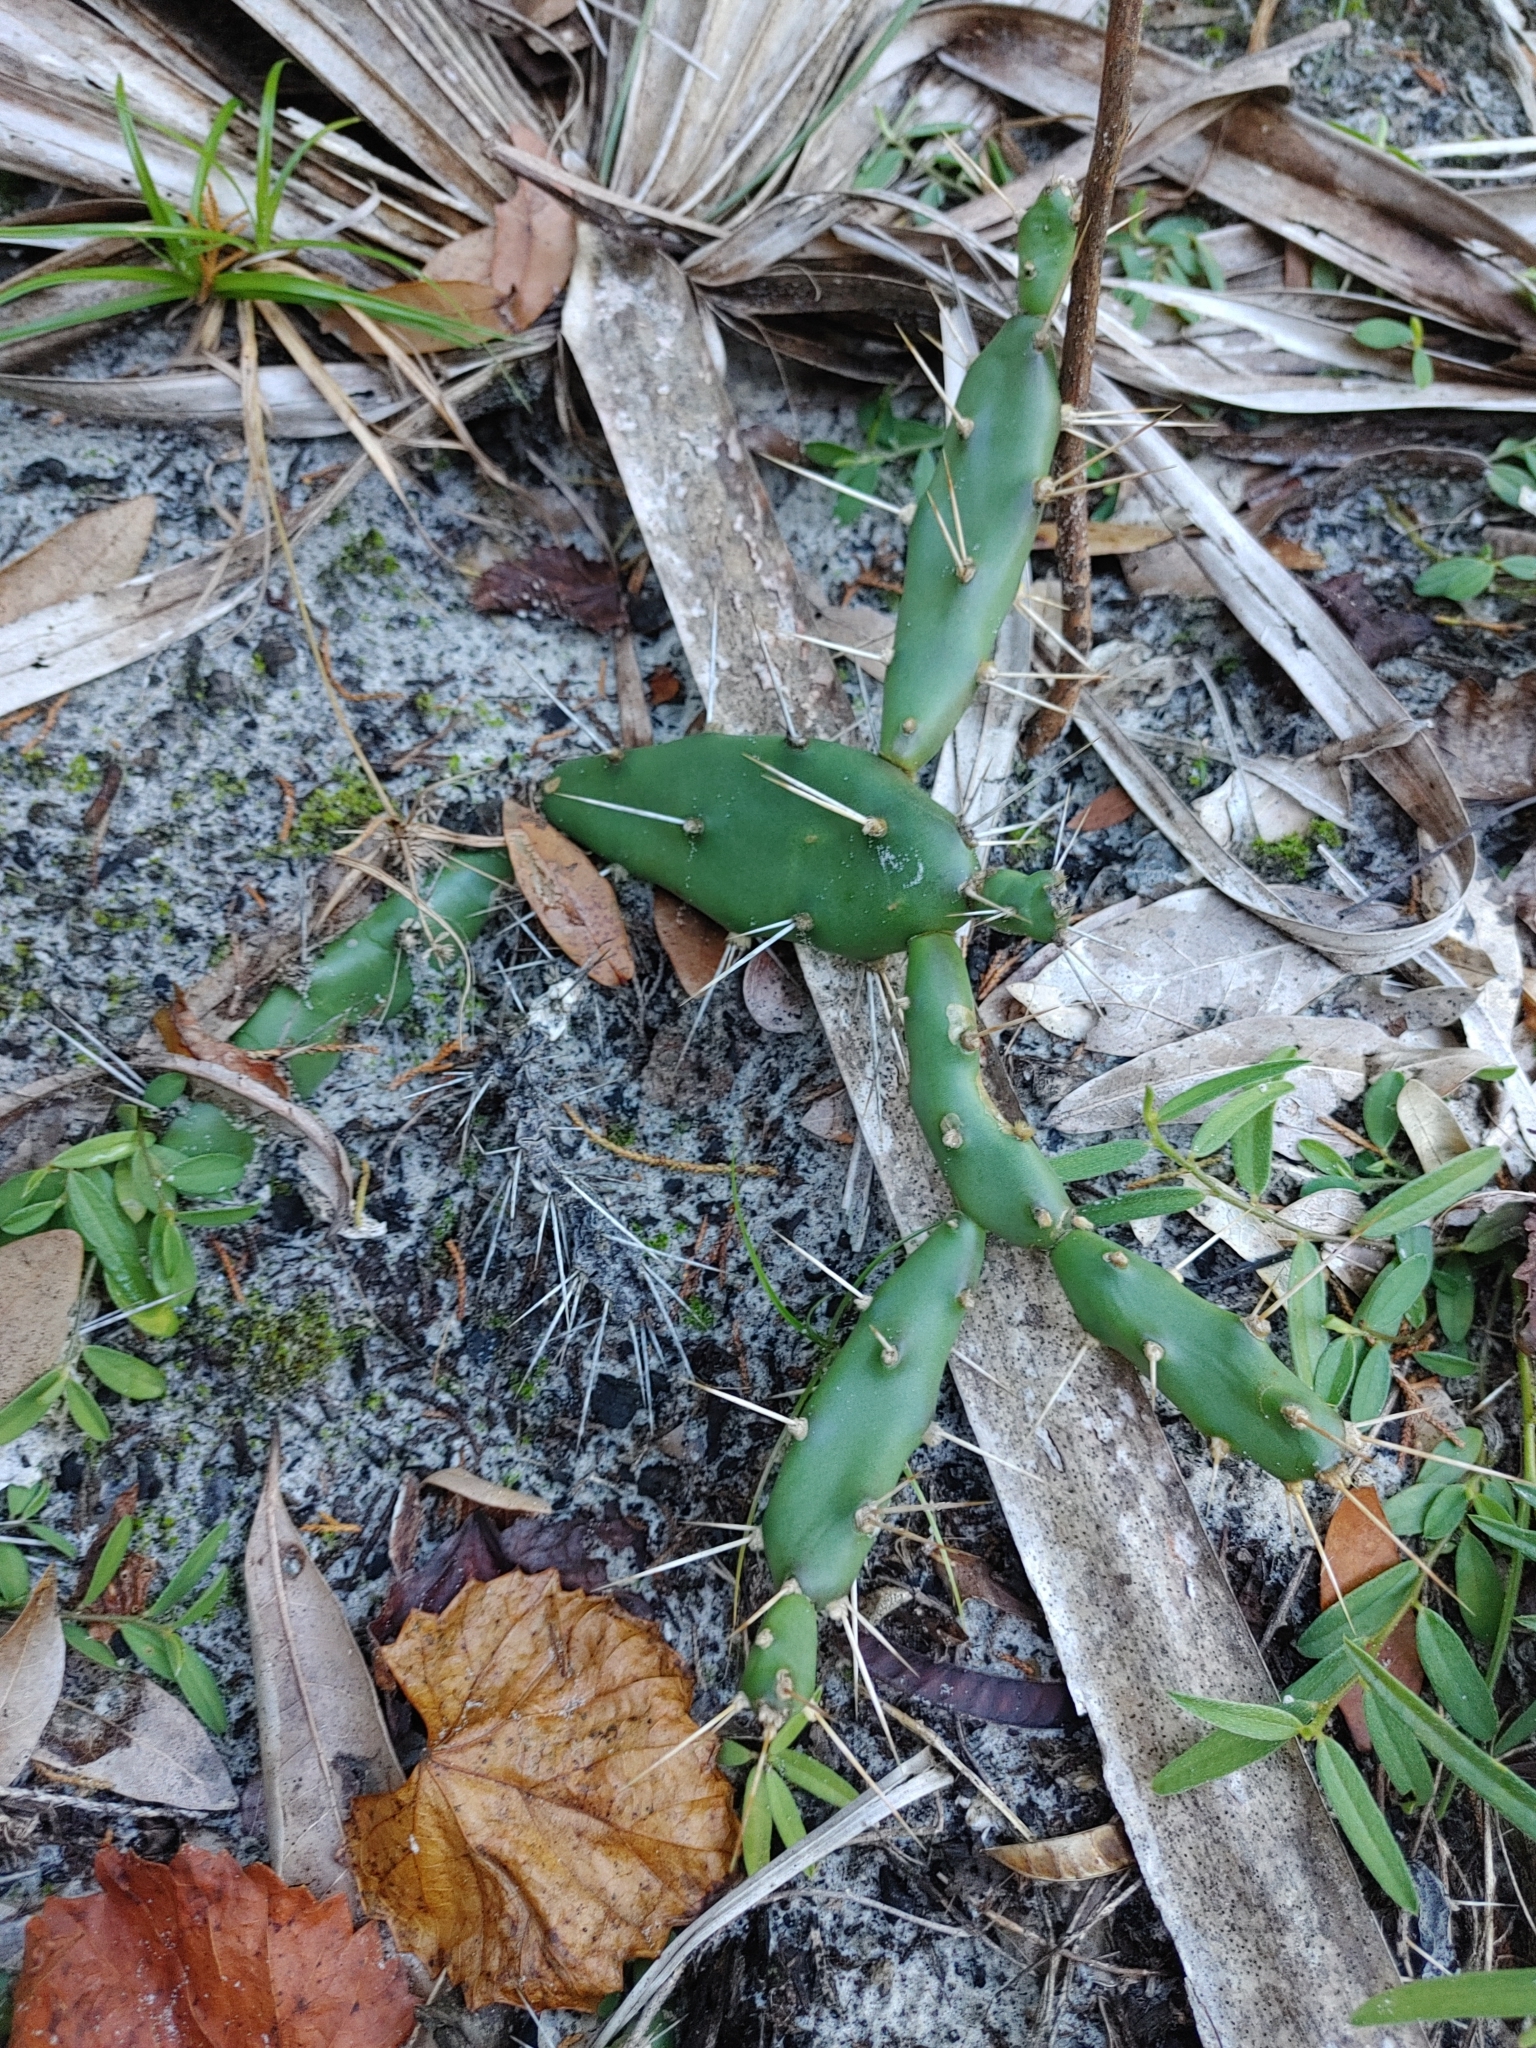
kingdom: Plantae
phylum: Tracheophyta
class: Magnoliopsida
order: Caryophyllales
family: Cactaceae
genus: Opuntia
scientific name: Opuntia drummondii
